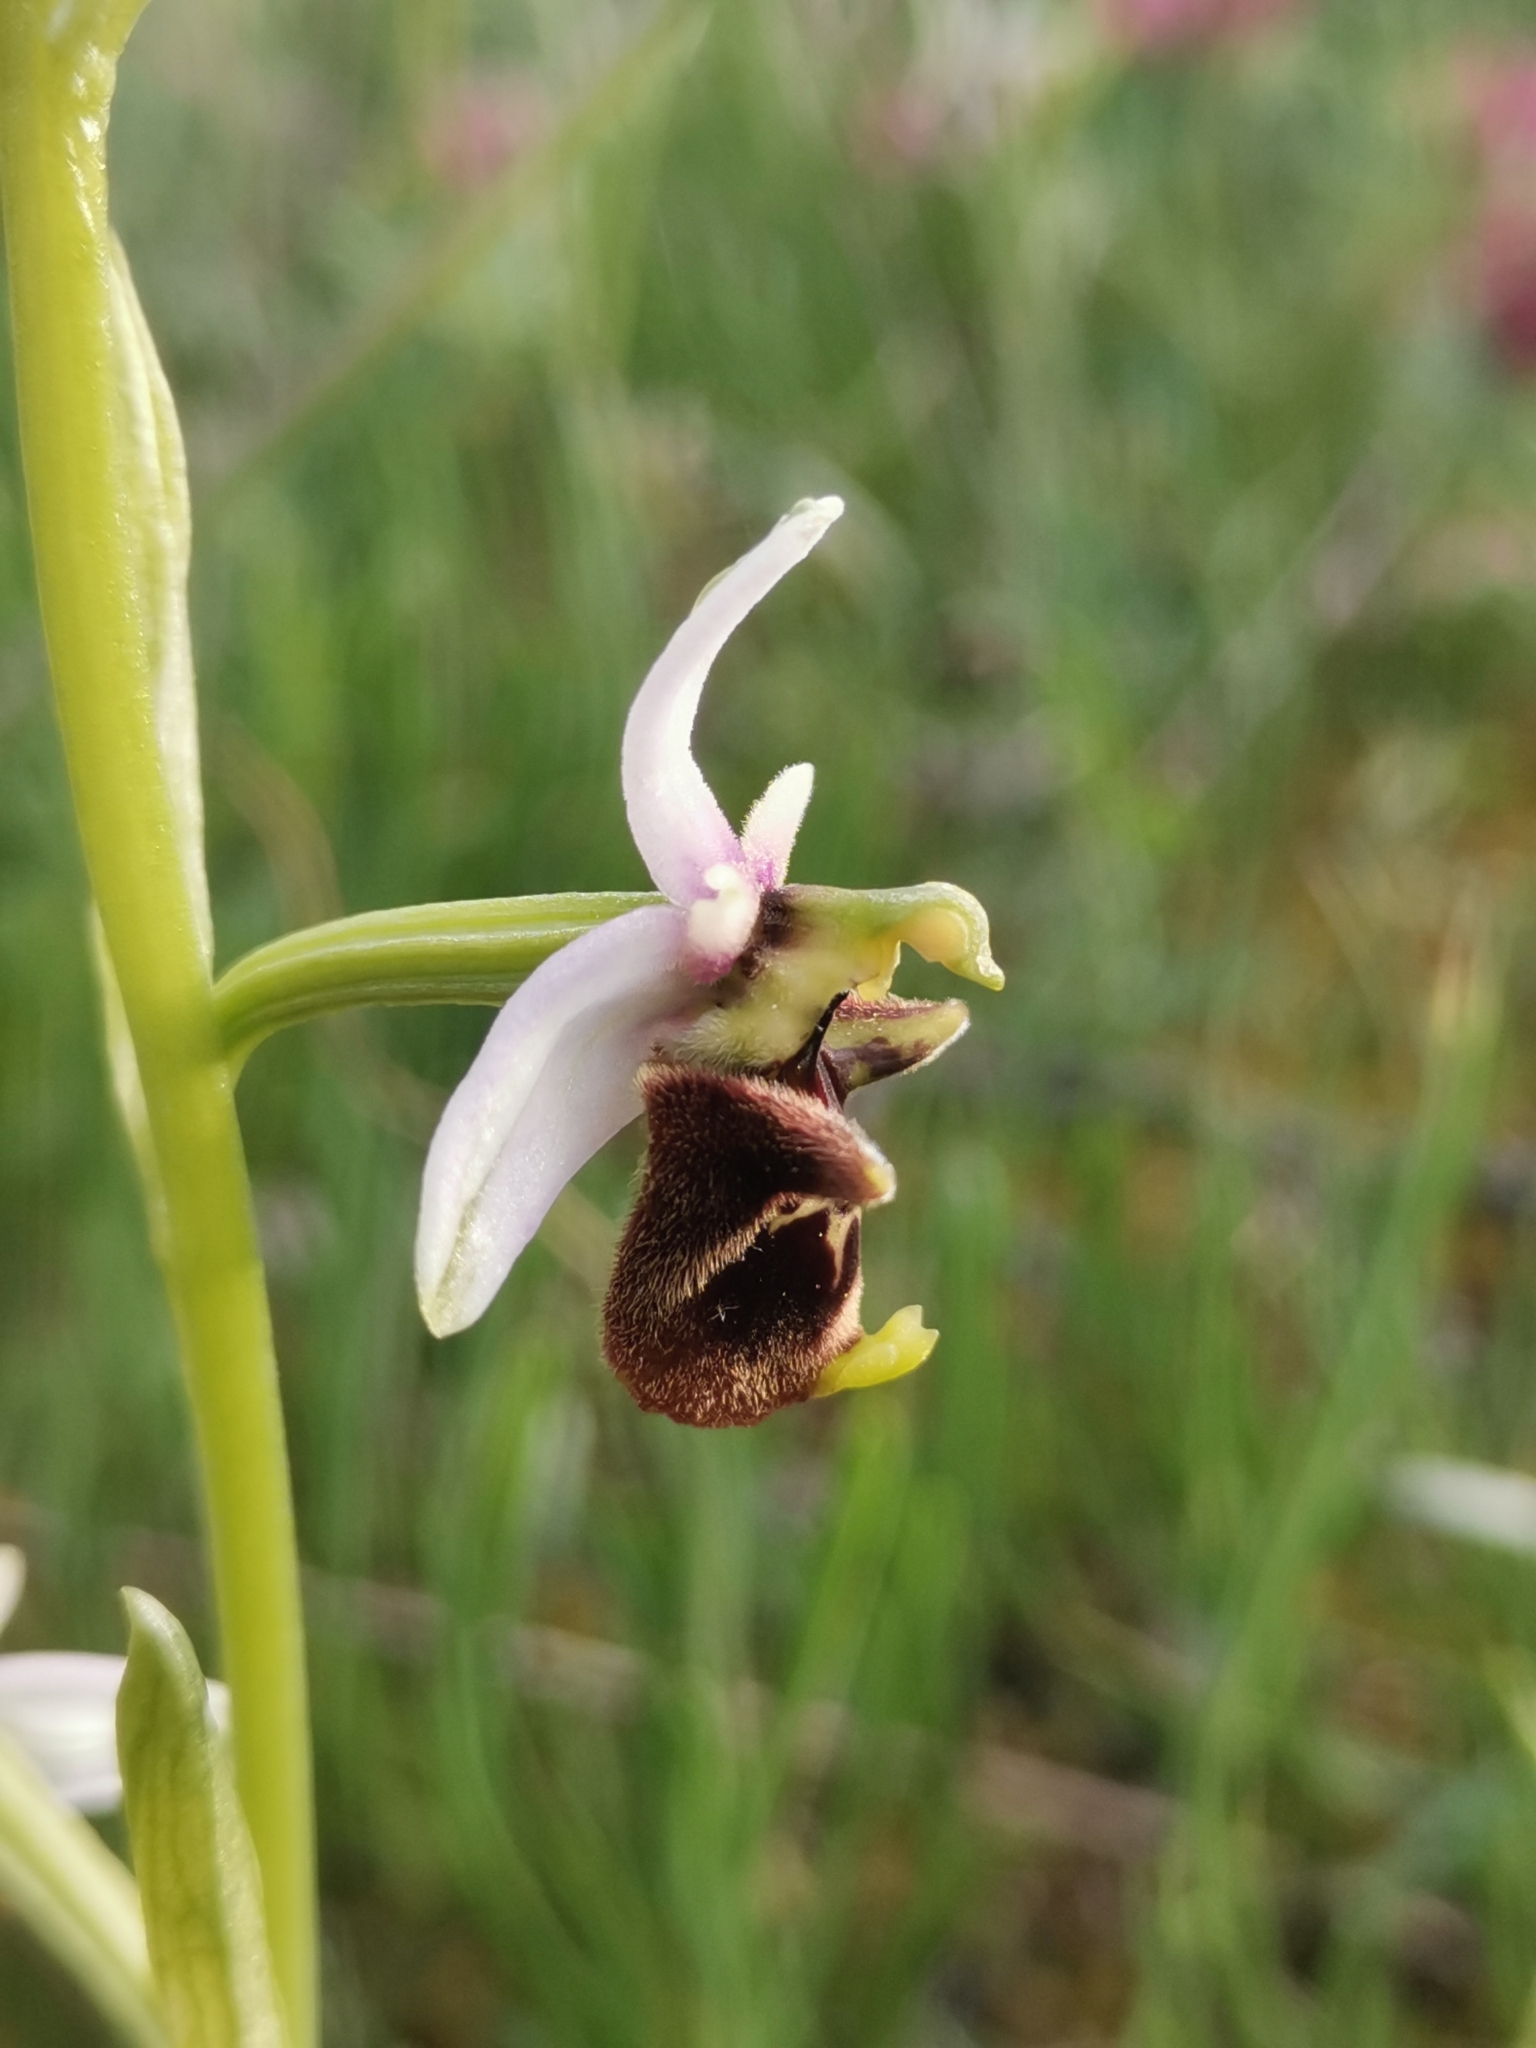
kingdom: Plantae
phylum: Tracheophyta
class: Liliopsida
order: Asparagales
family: Orchidaceae
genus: Ophrys
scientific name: Ophrys holosericea
